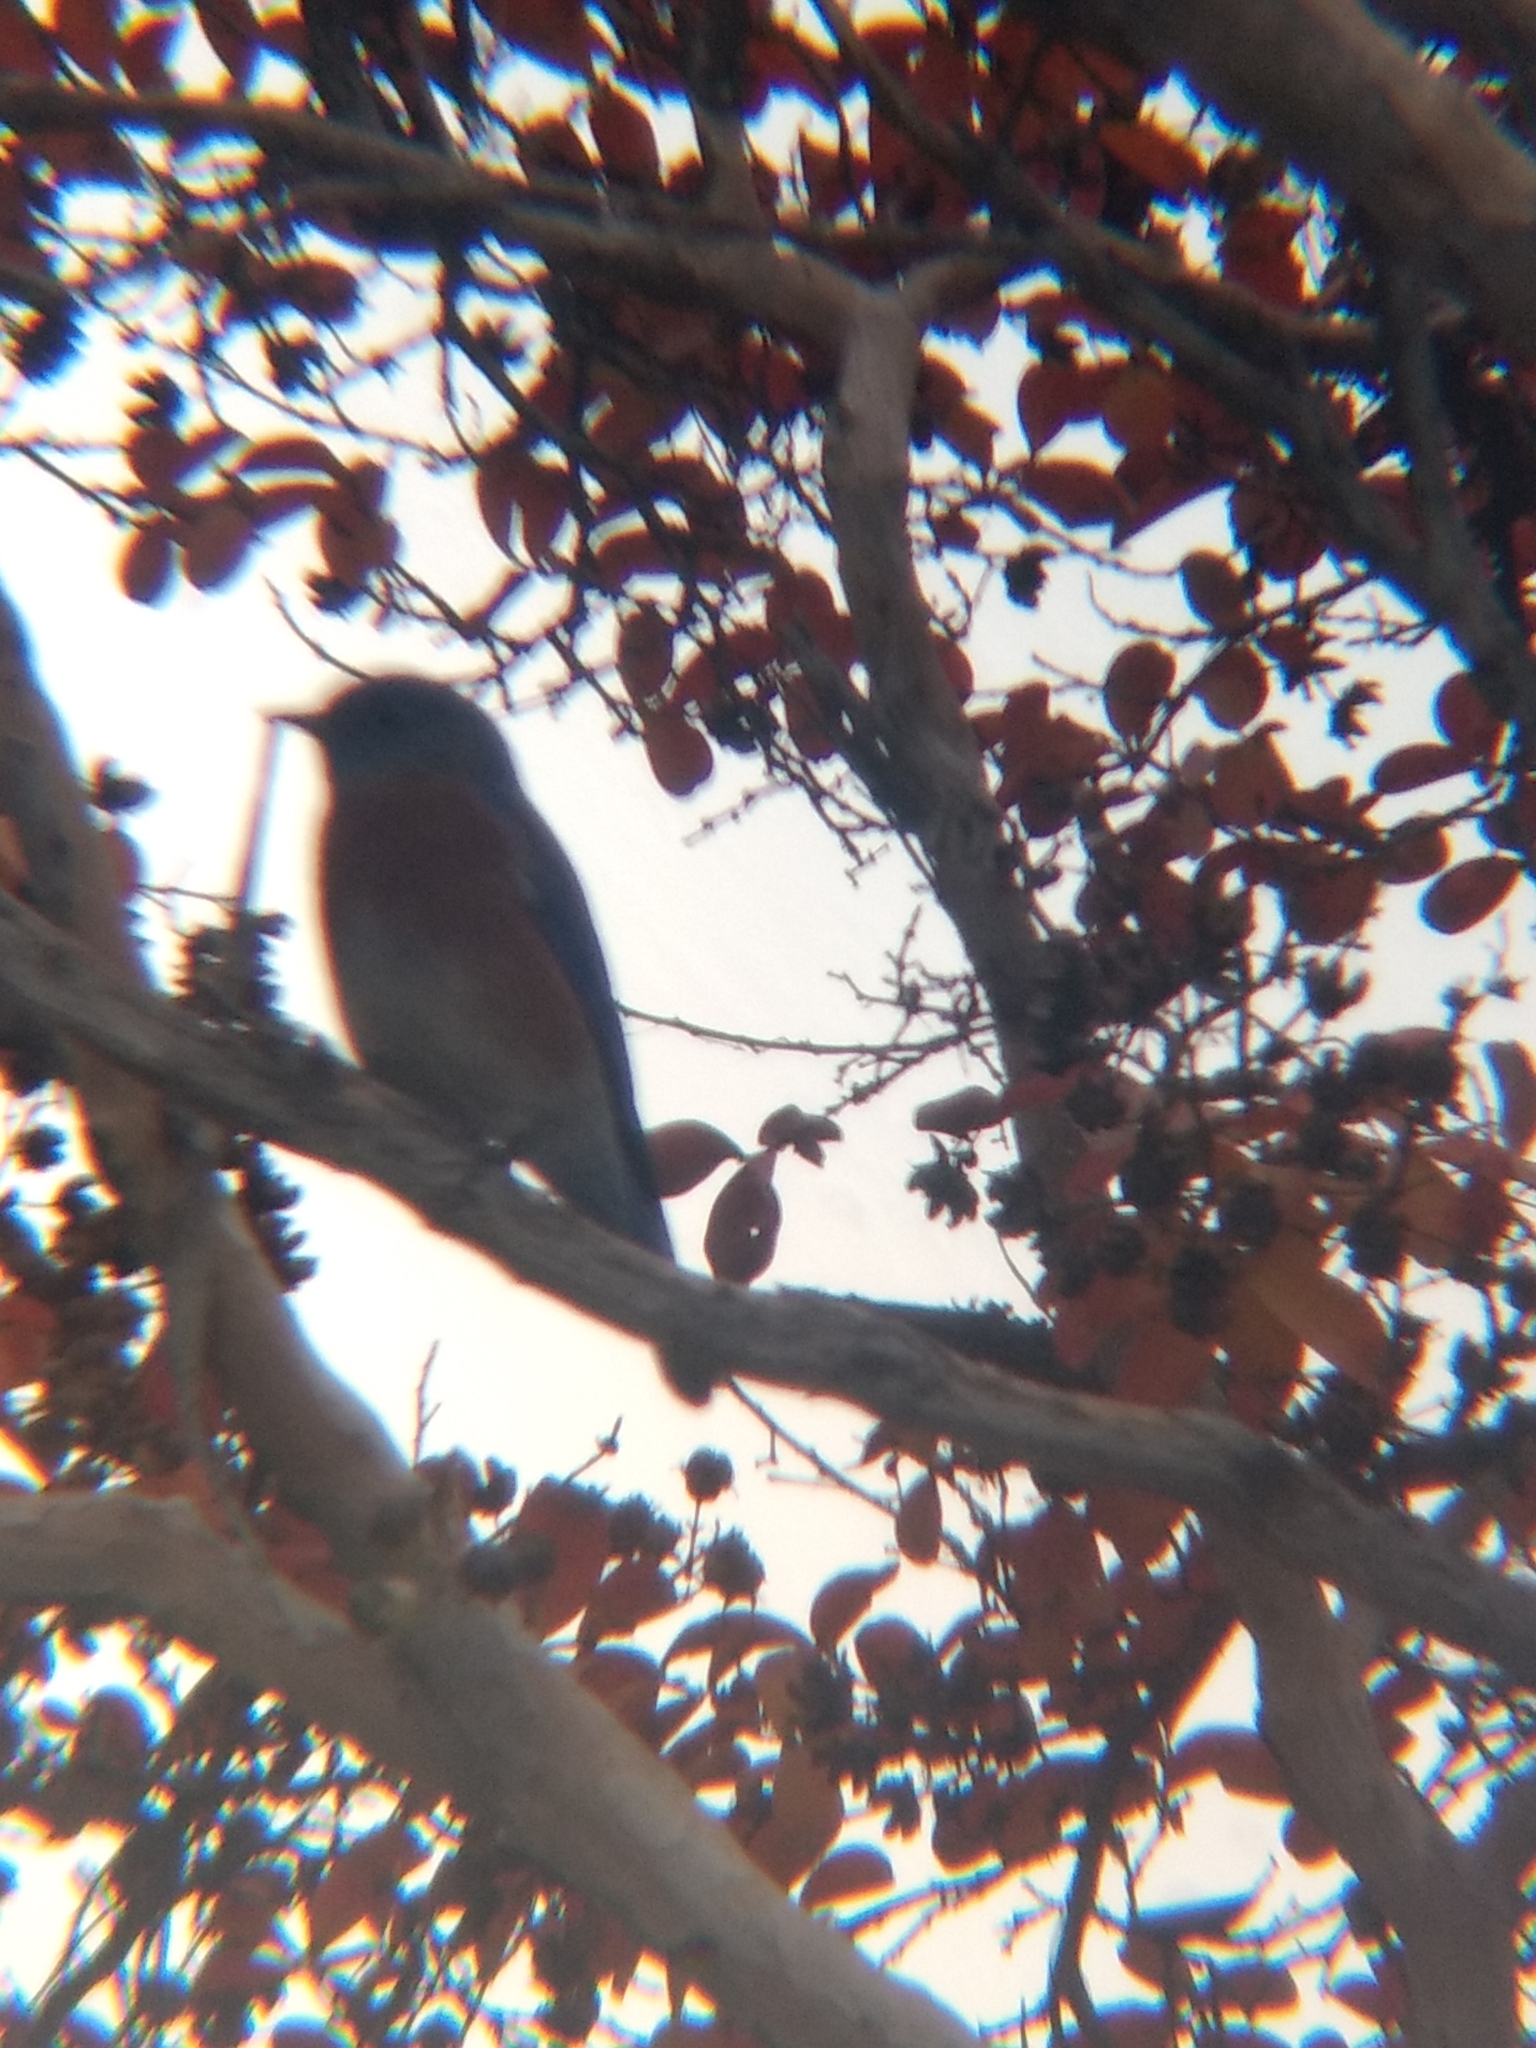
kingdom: Animalia
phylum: Chordata
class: Aves
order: Passeriformes
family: Turdidae
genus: Sialia
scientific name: Sialia mexicana
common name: Western bluebird
